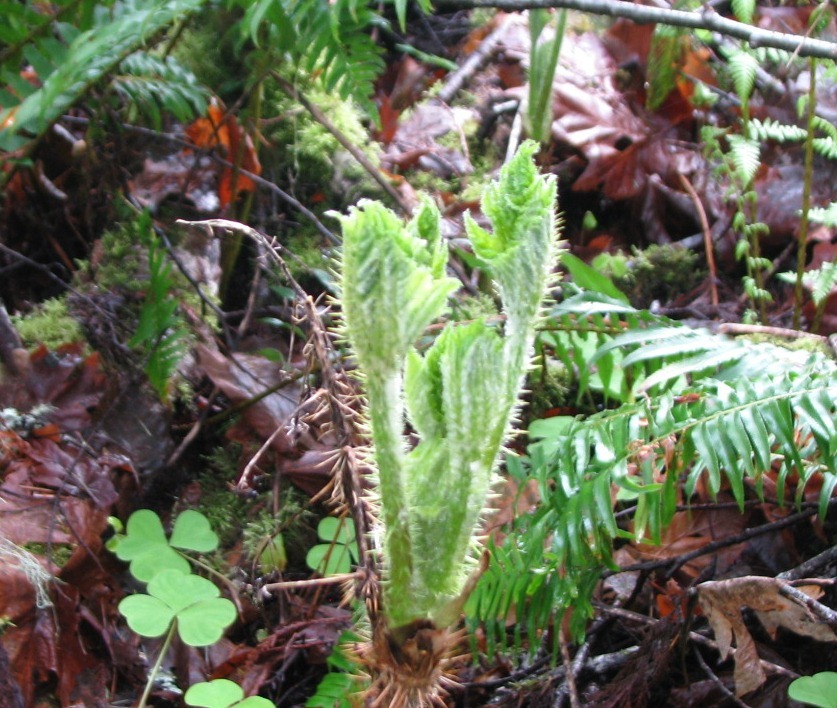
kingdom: Plantae
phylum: Tracheophyta
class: Magnoliopsida
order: Apiales
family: Araliaceae
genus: Oplopanax
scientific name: Oplopanax horridus
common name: Devil's walking-stick
